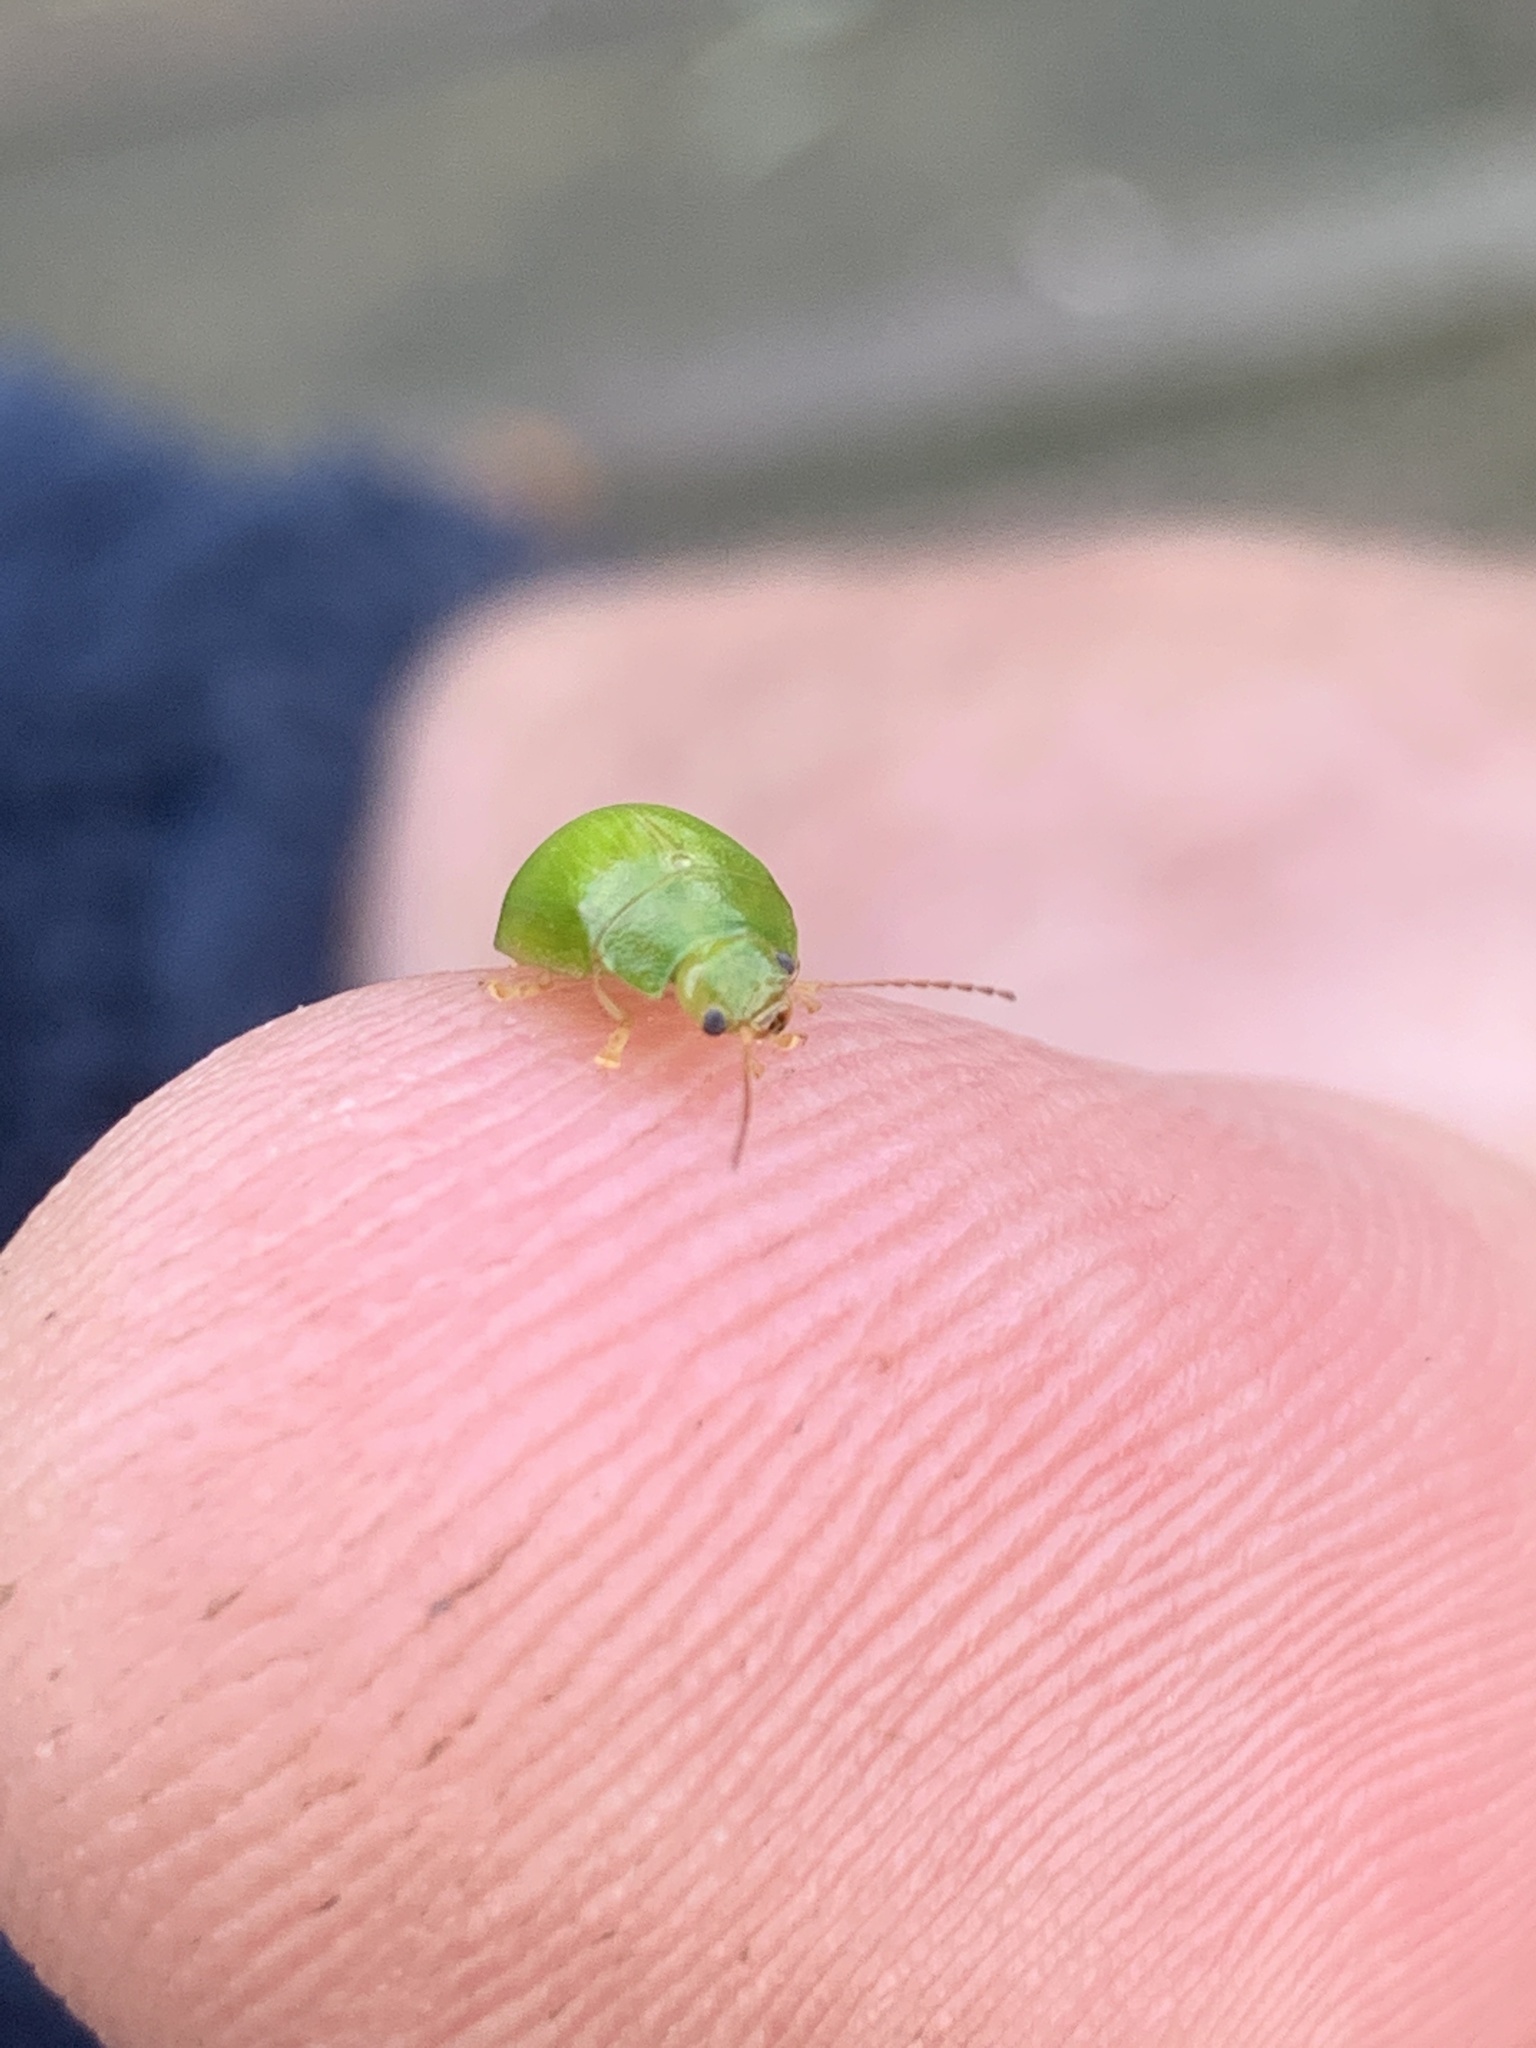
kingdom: Animalia
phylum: Arthropoda
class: Insecta
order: Coleoptera
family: Chrysomelidae
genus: Paropsides
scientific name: Paropsides
